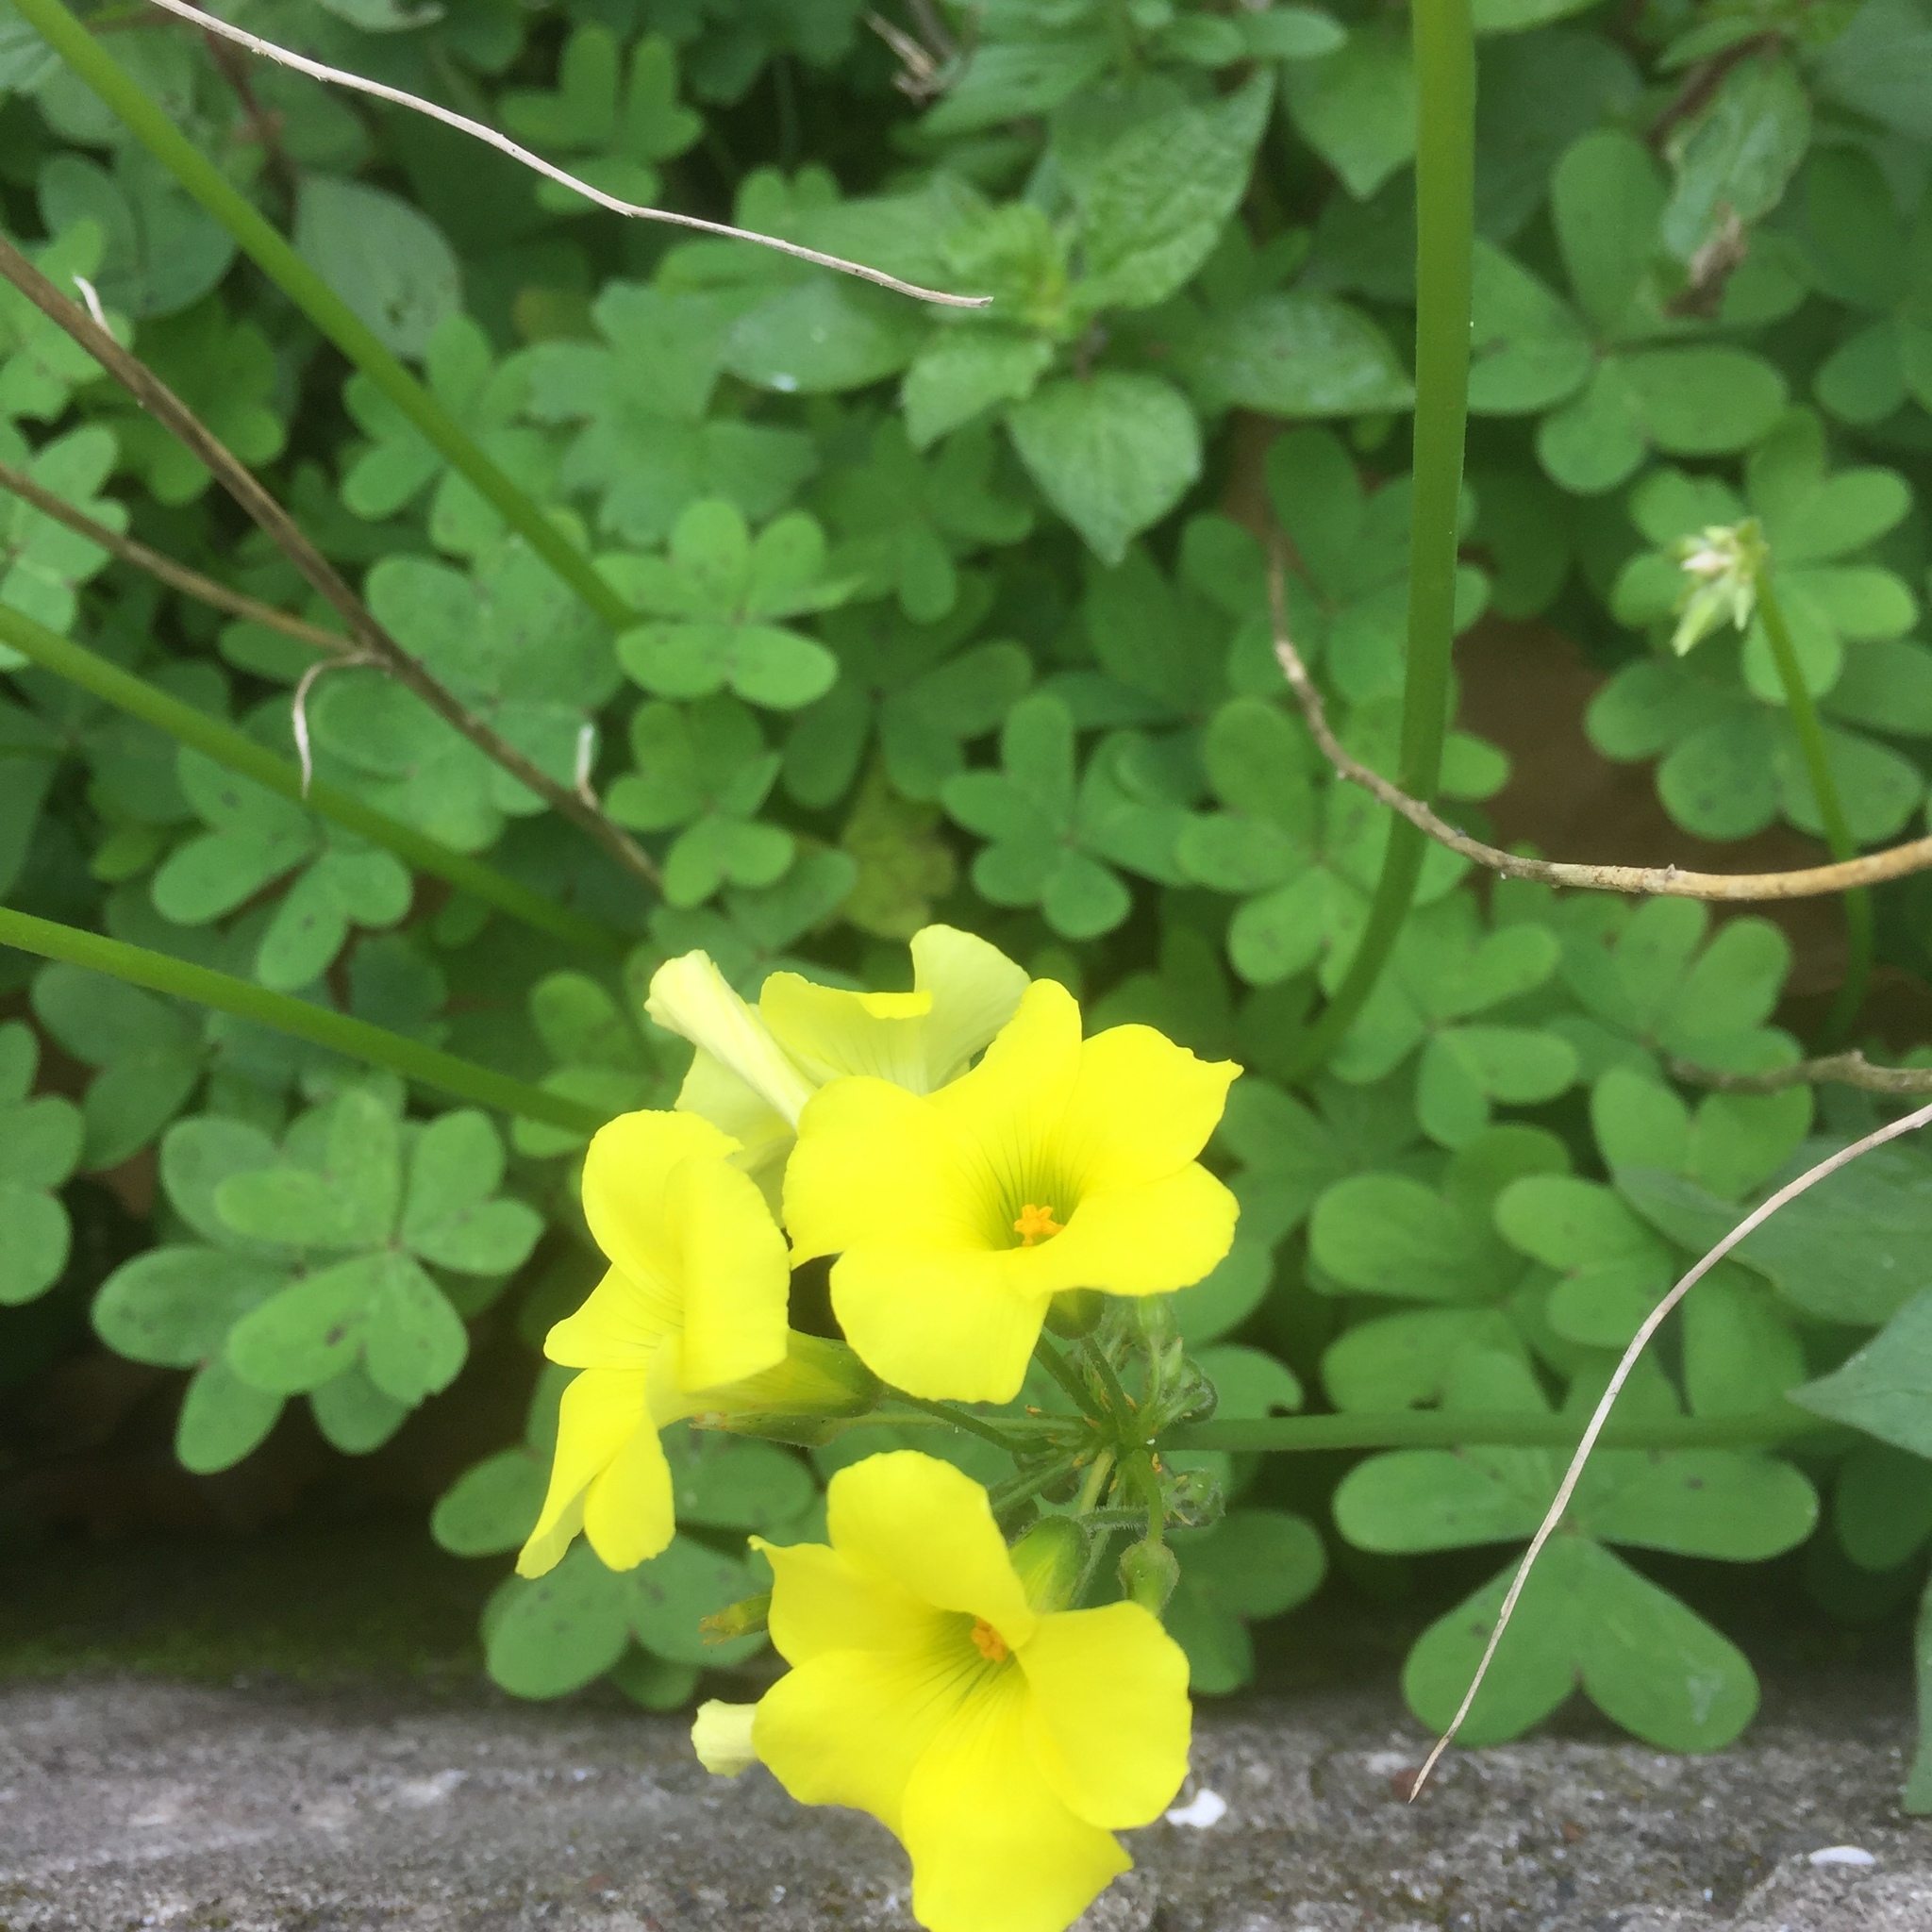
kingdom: Plantae
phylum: Tracheophyta
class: Magnoliopsida
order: Oxalidales
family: Oxalidaceae
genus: Oxalis
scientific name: Oxalis pes-caprae
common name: Bermuda-buttercup
